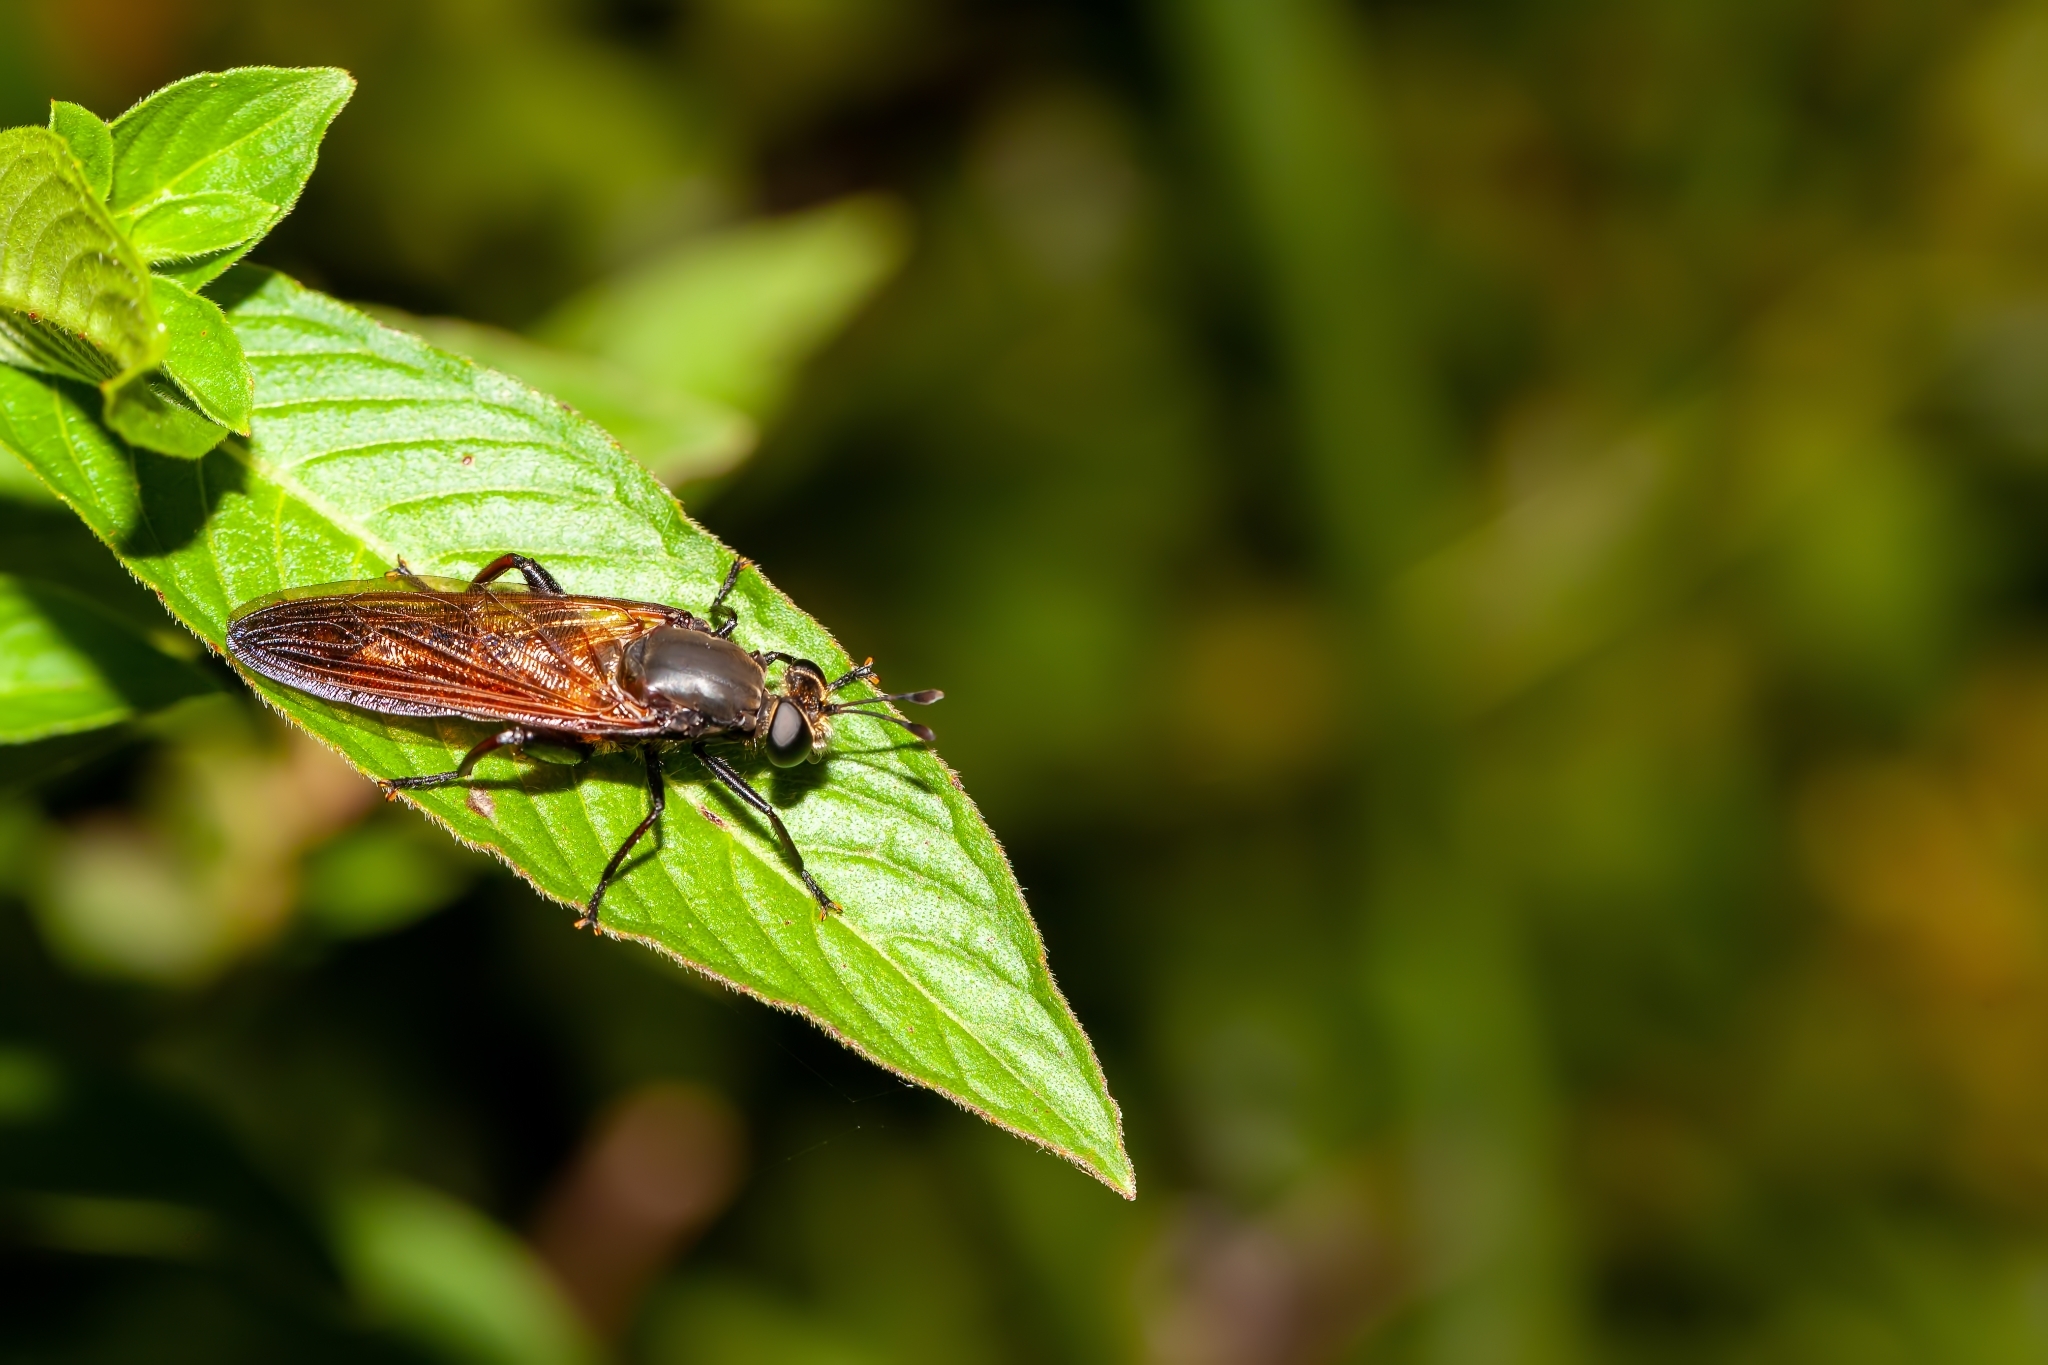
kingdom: Animalia
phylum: Arthropoda
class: Insecta
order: Diptera
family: Mydidae
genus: Mydas
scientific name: Mydas maculiventris
